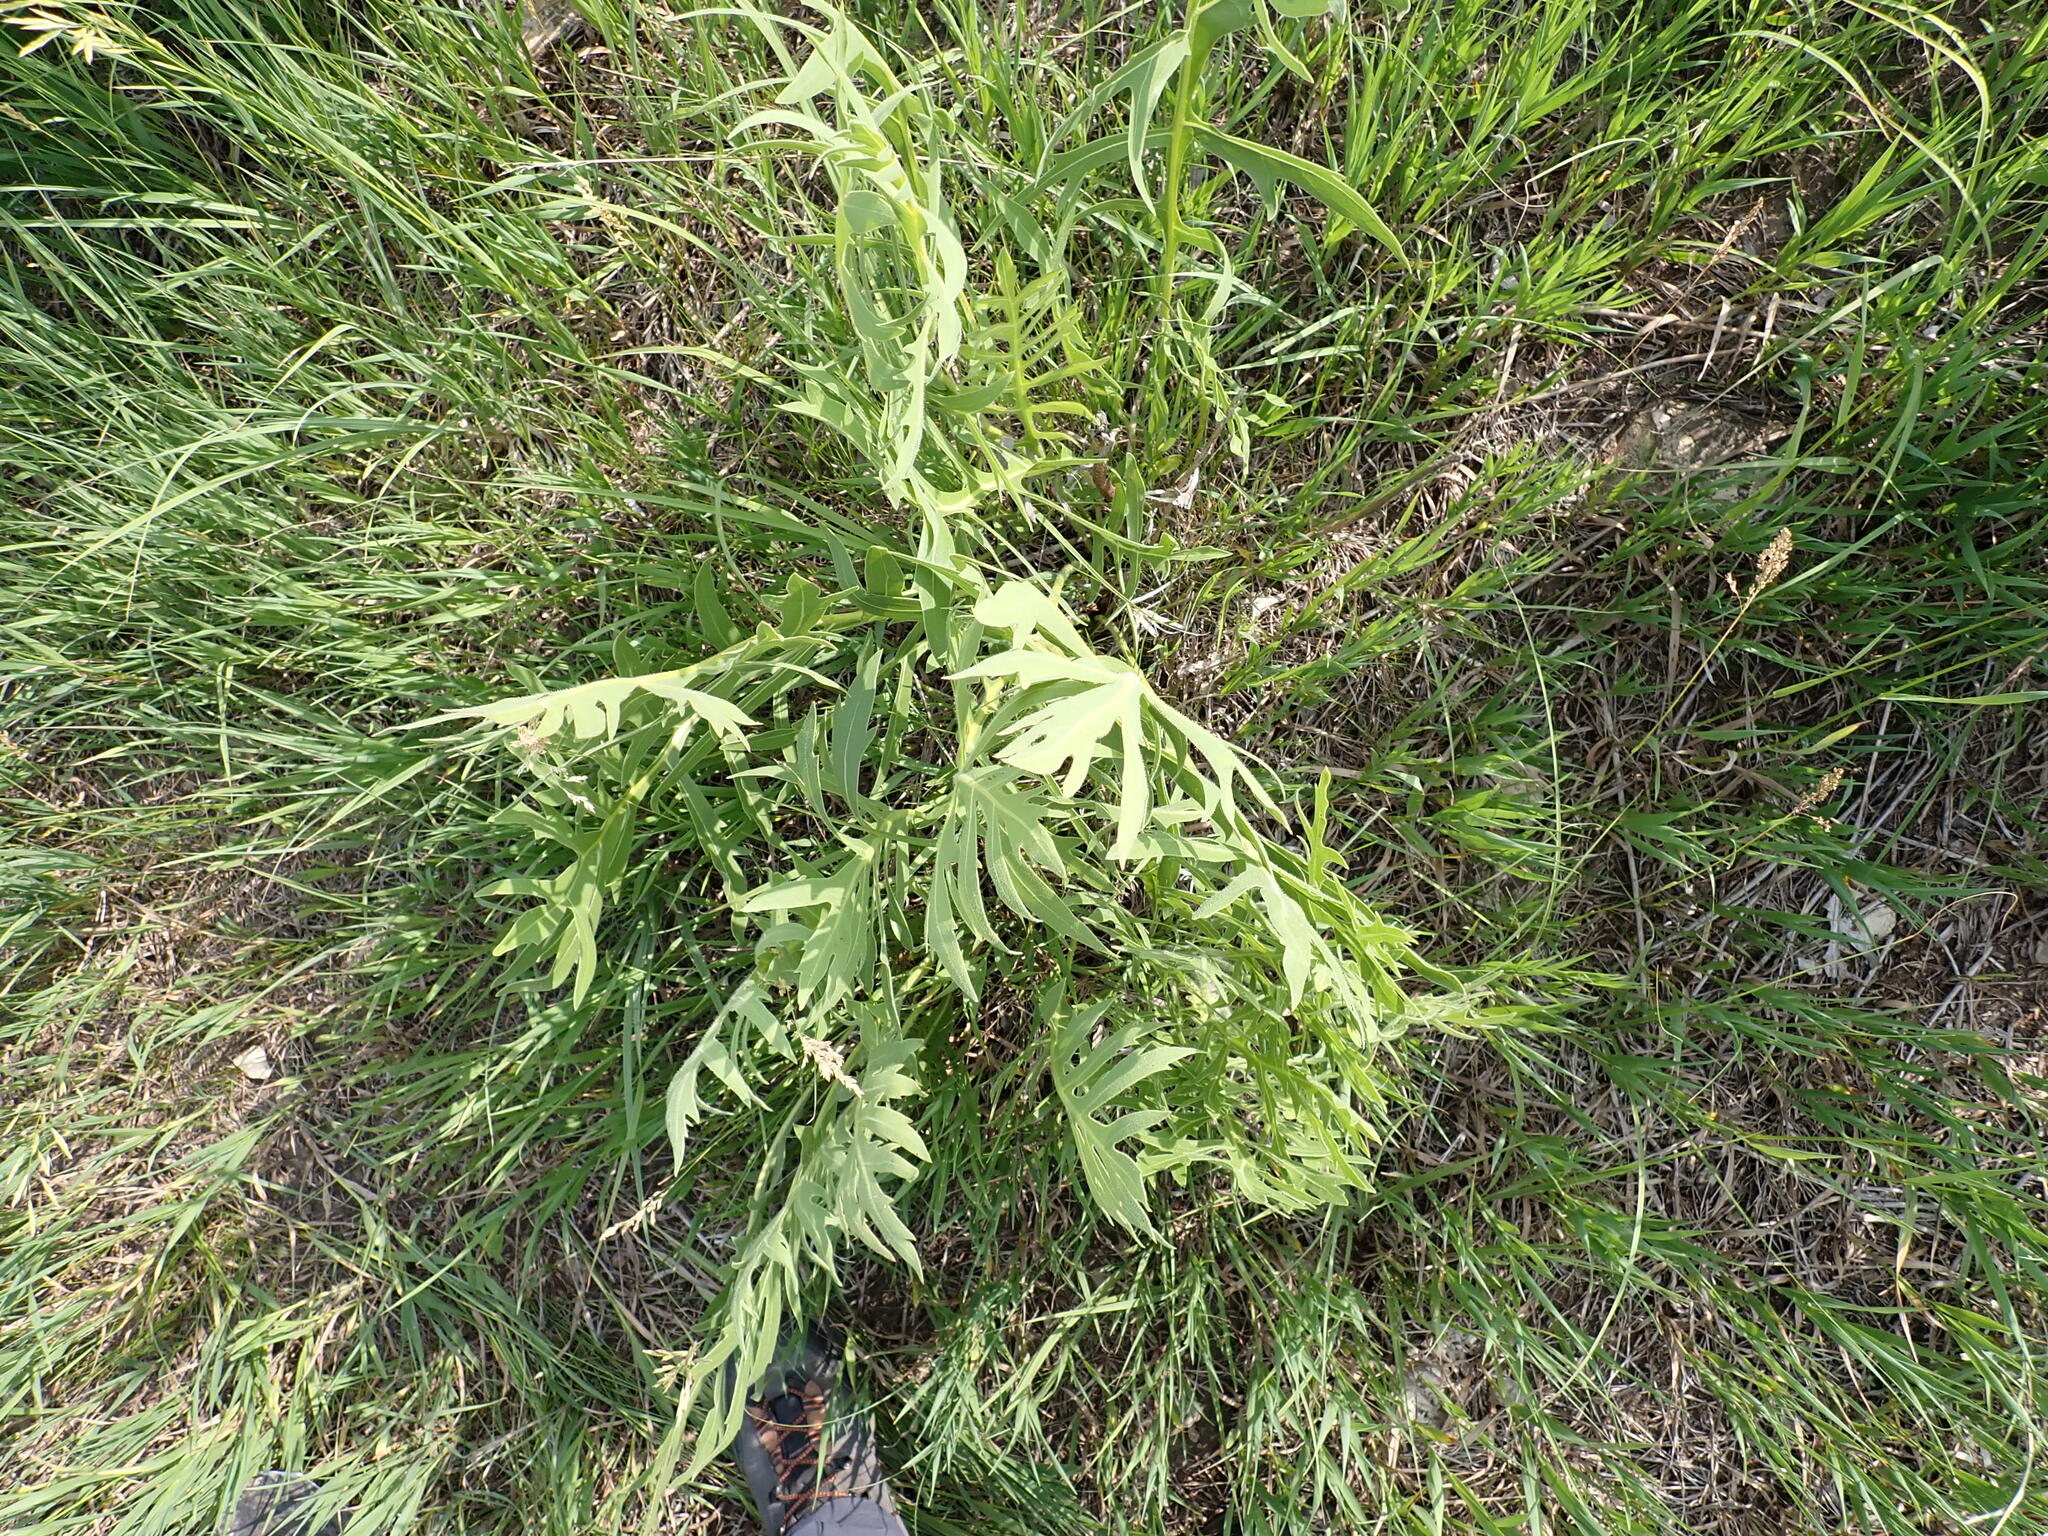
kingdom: Plantae
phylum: Tracheophyta
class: Magnoliopsida
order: Asterales
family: Asteraceae
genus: Silphium
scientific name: Silphium laciniatum
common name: Polarplant
